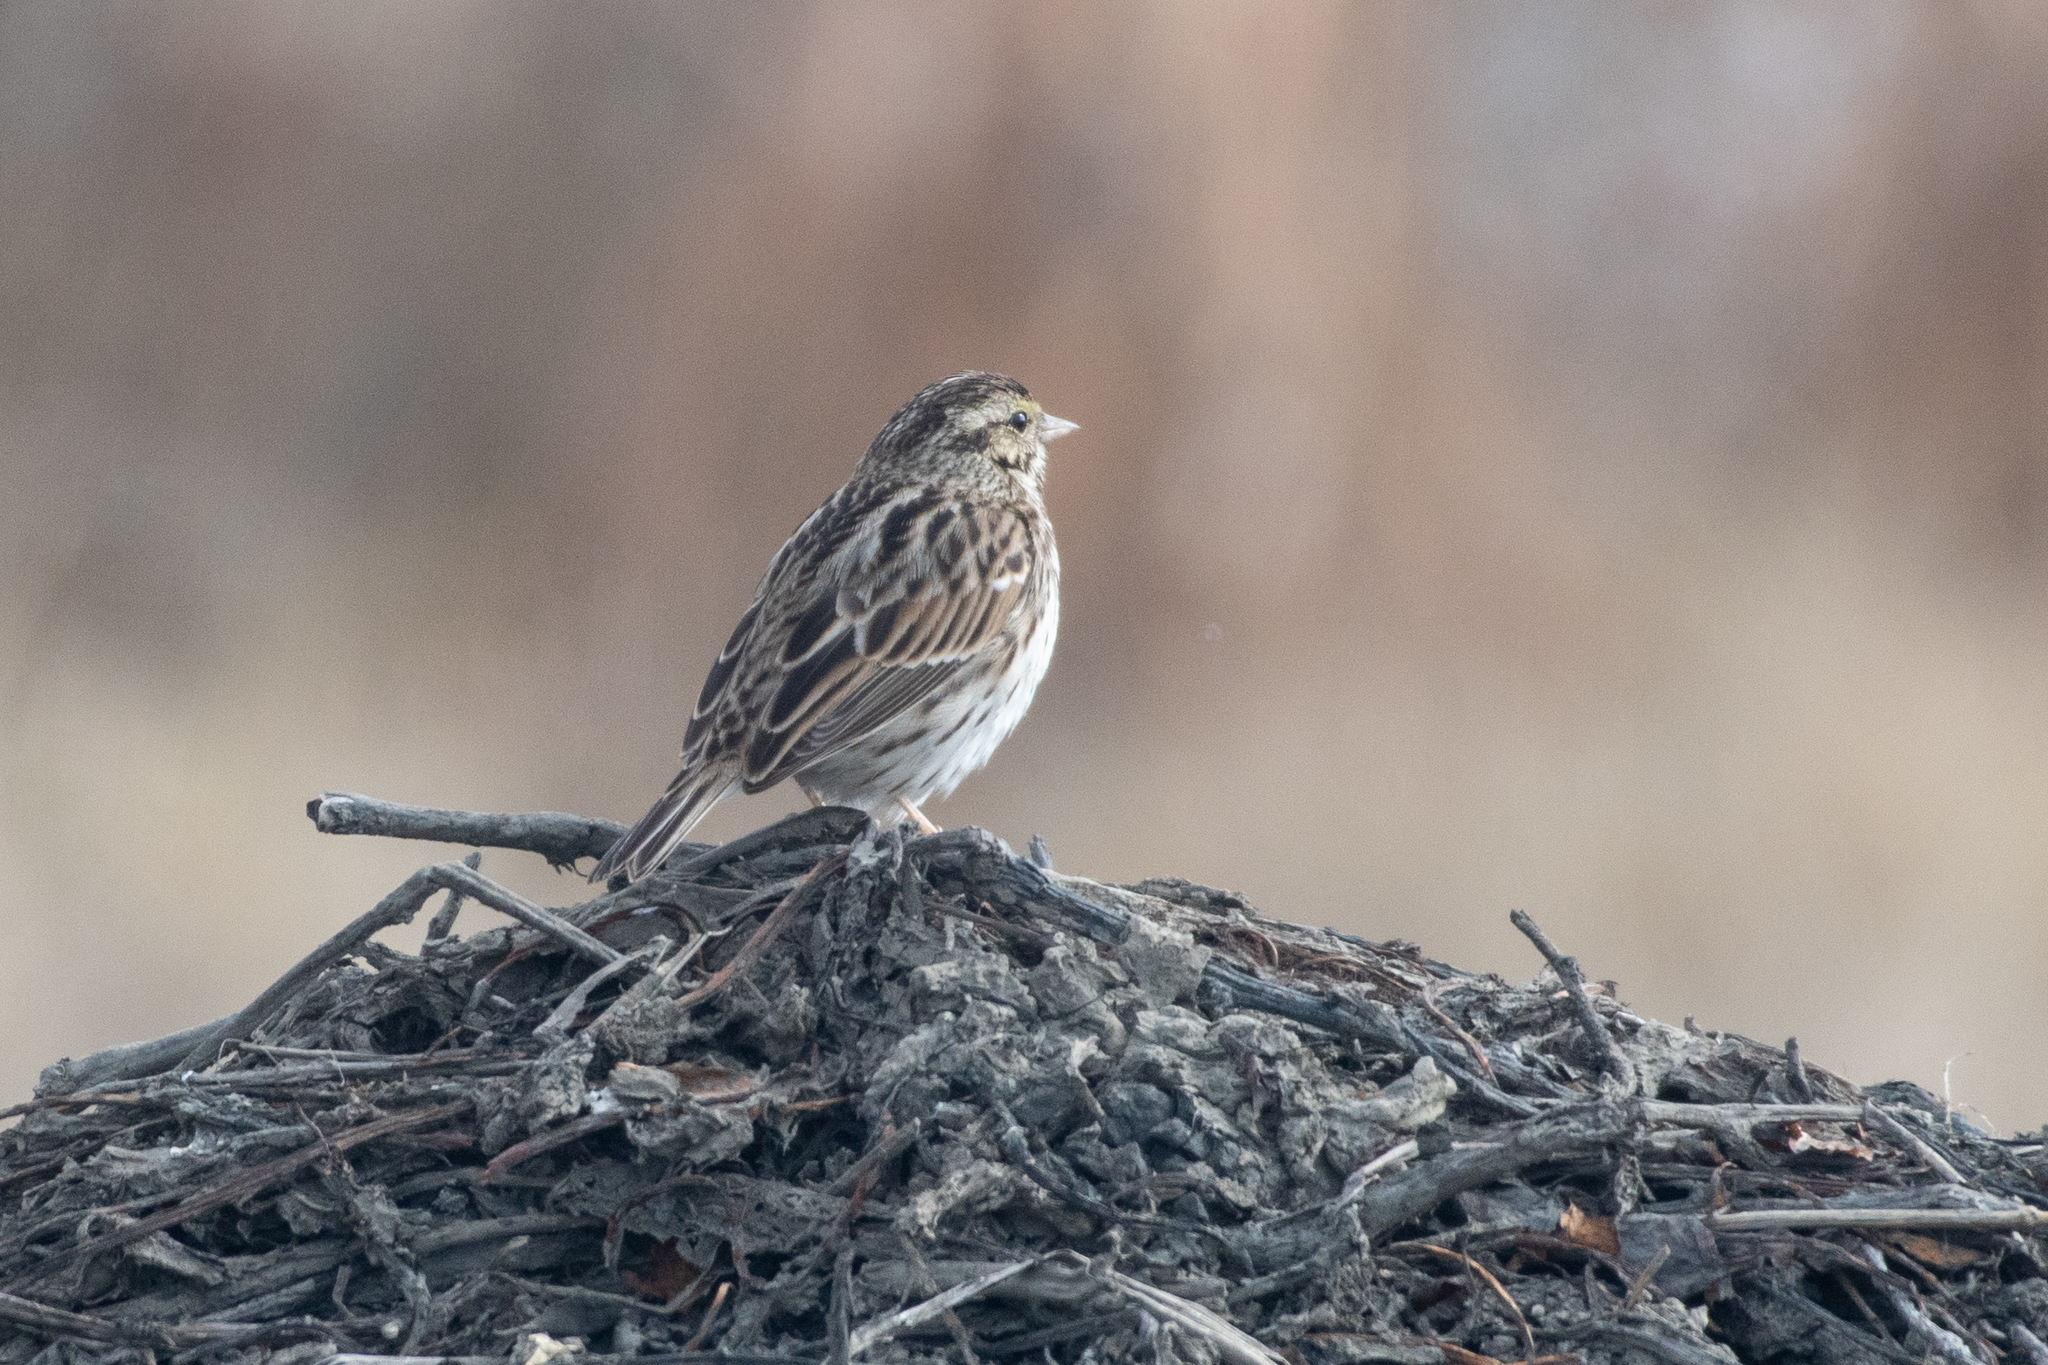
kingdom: Animalia
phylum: Chordata
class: Aves
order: Passeriformes
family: Passerellidae
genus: Passerculus
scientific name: Passerculus sandwichensis
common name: Savannah sparrow
